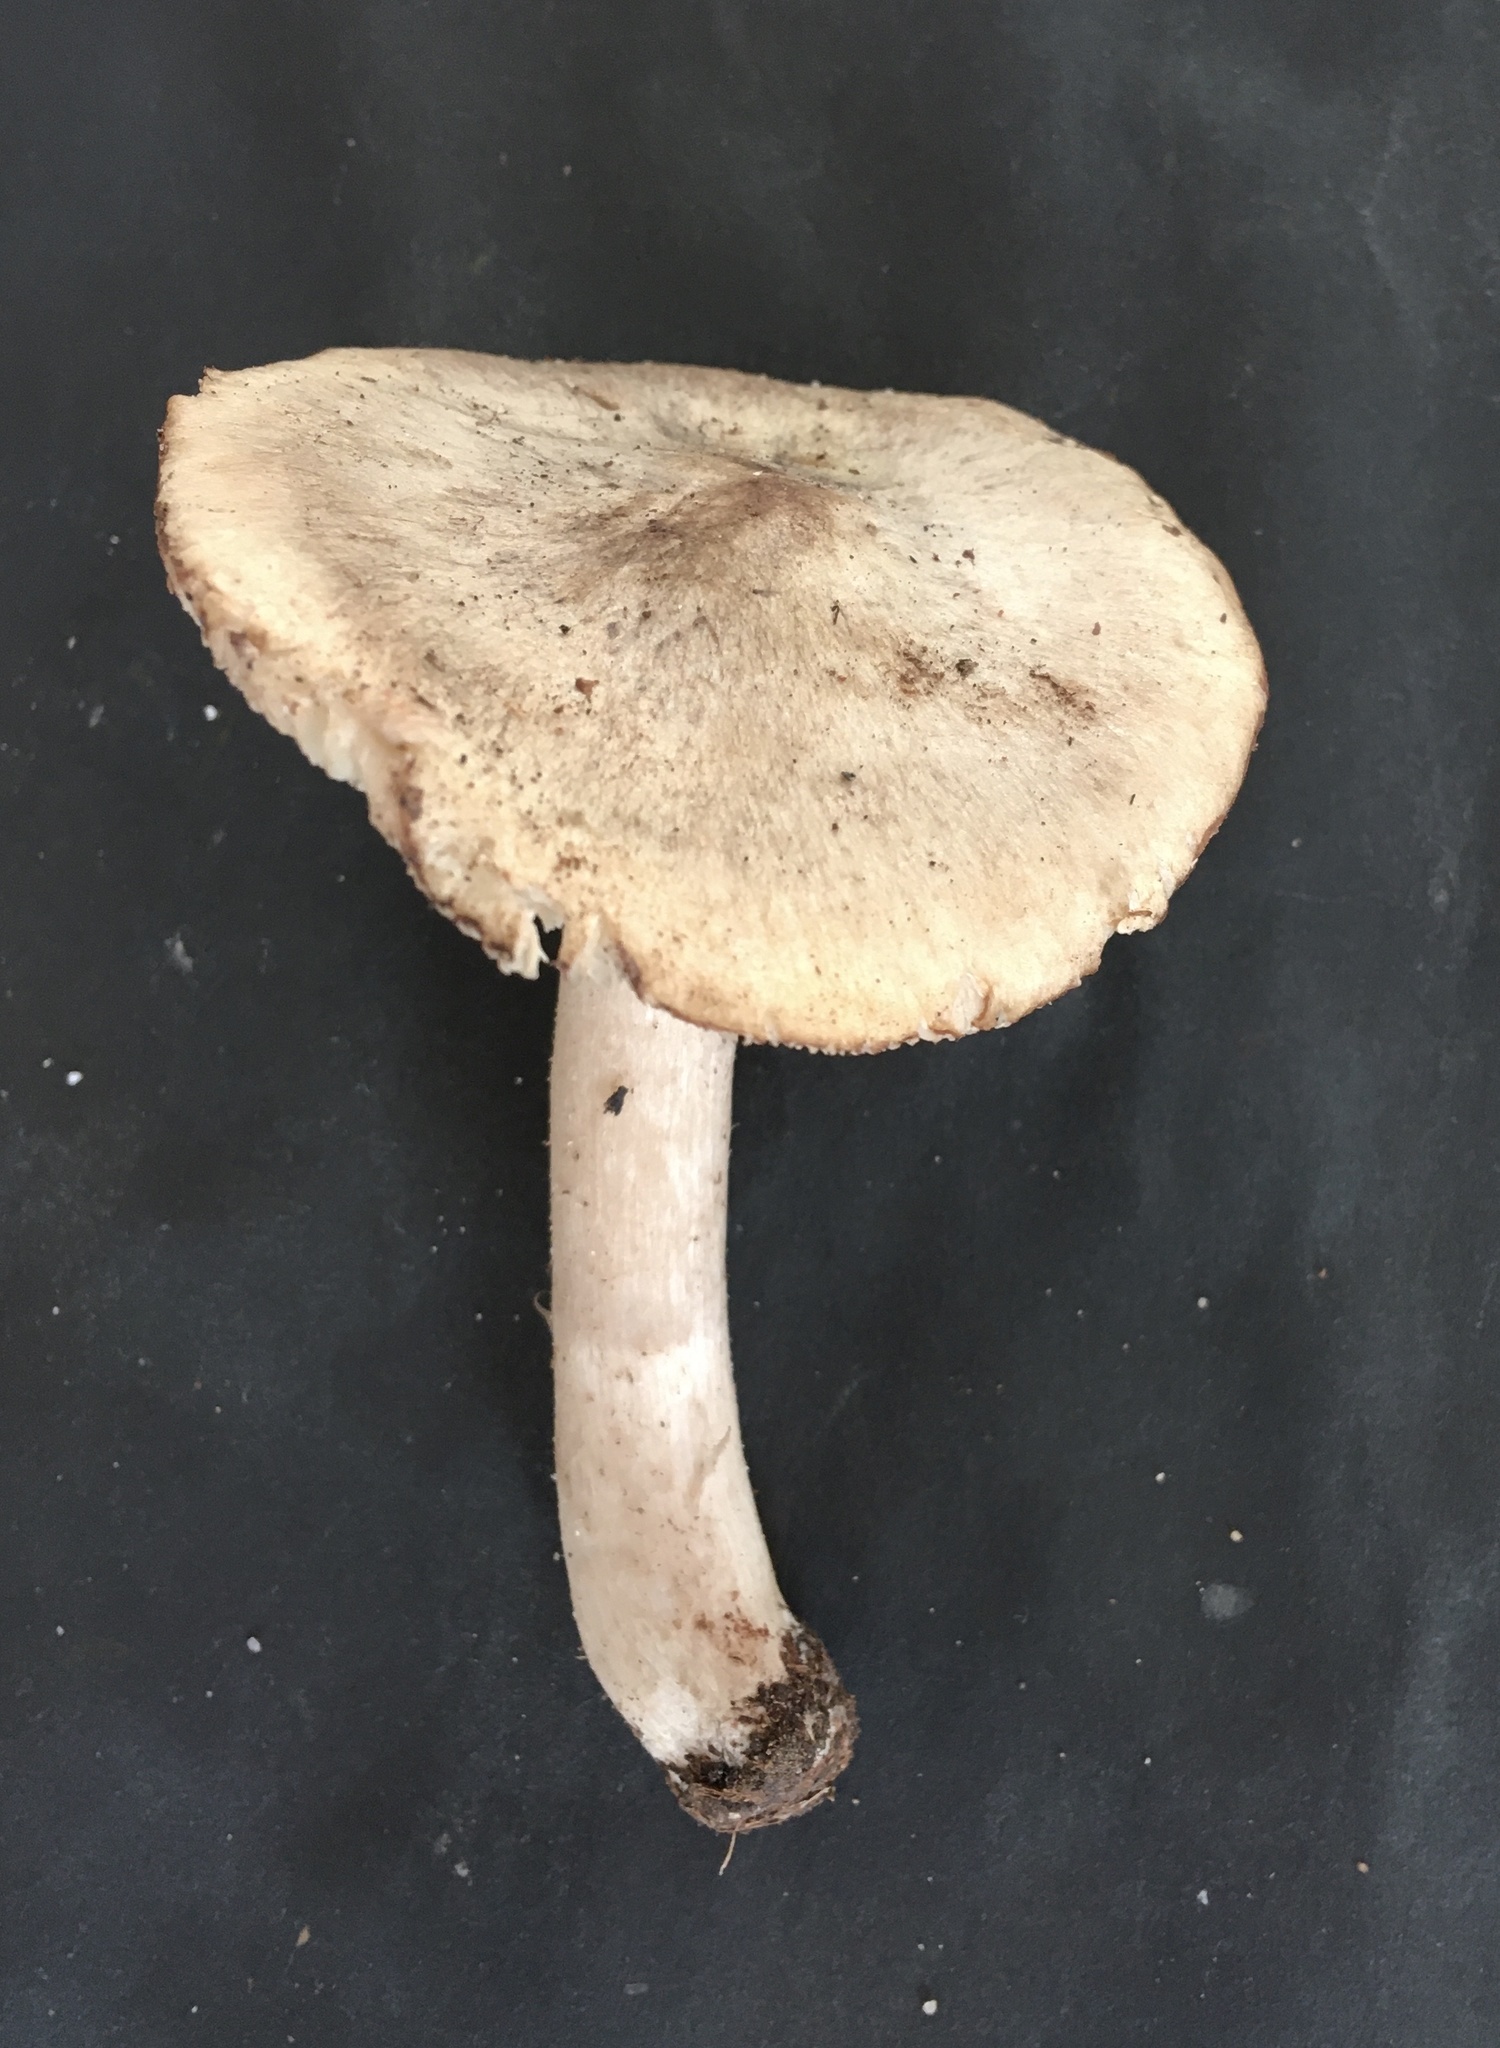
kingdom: Fungi
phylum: Basidiomycota
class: Agaricomycetes
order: Agaricales
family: Tricholomataceae
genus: Tricholoma
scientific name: Tricholoma aestuans
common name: Acrid knight
